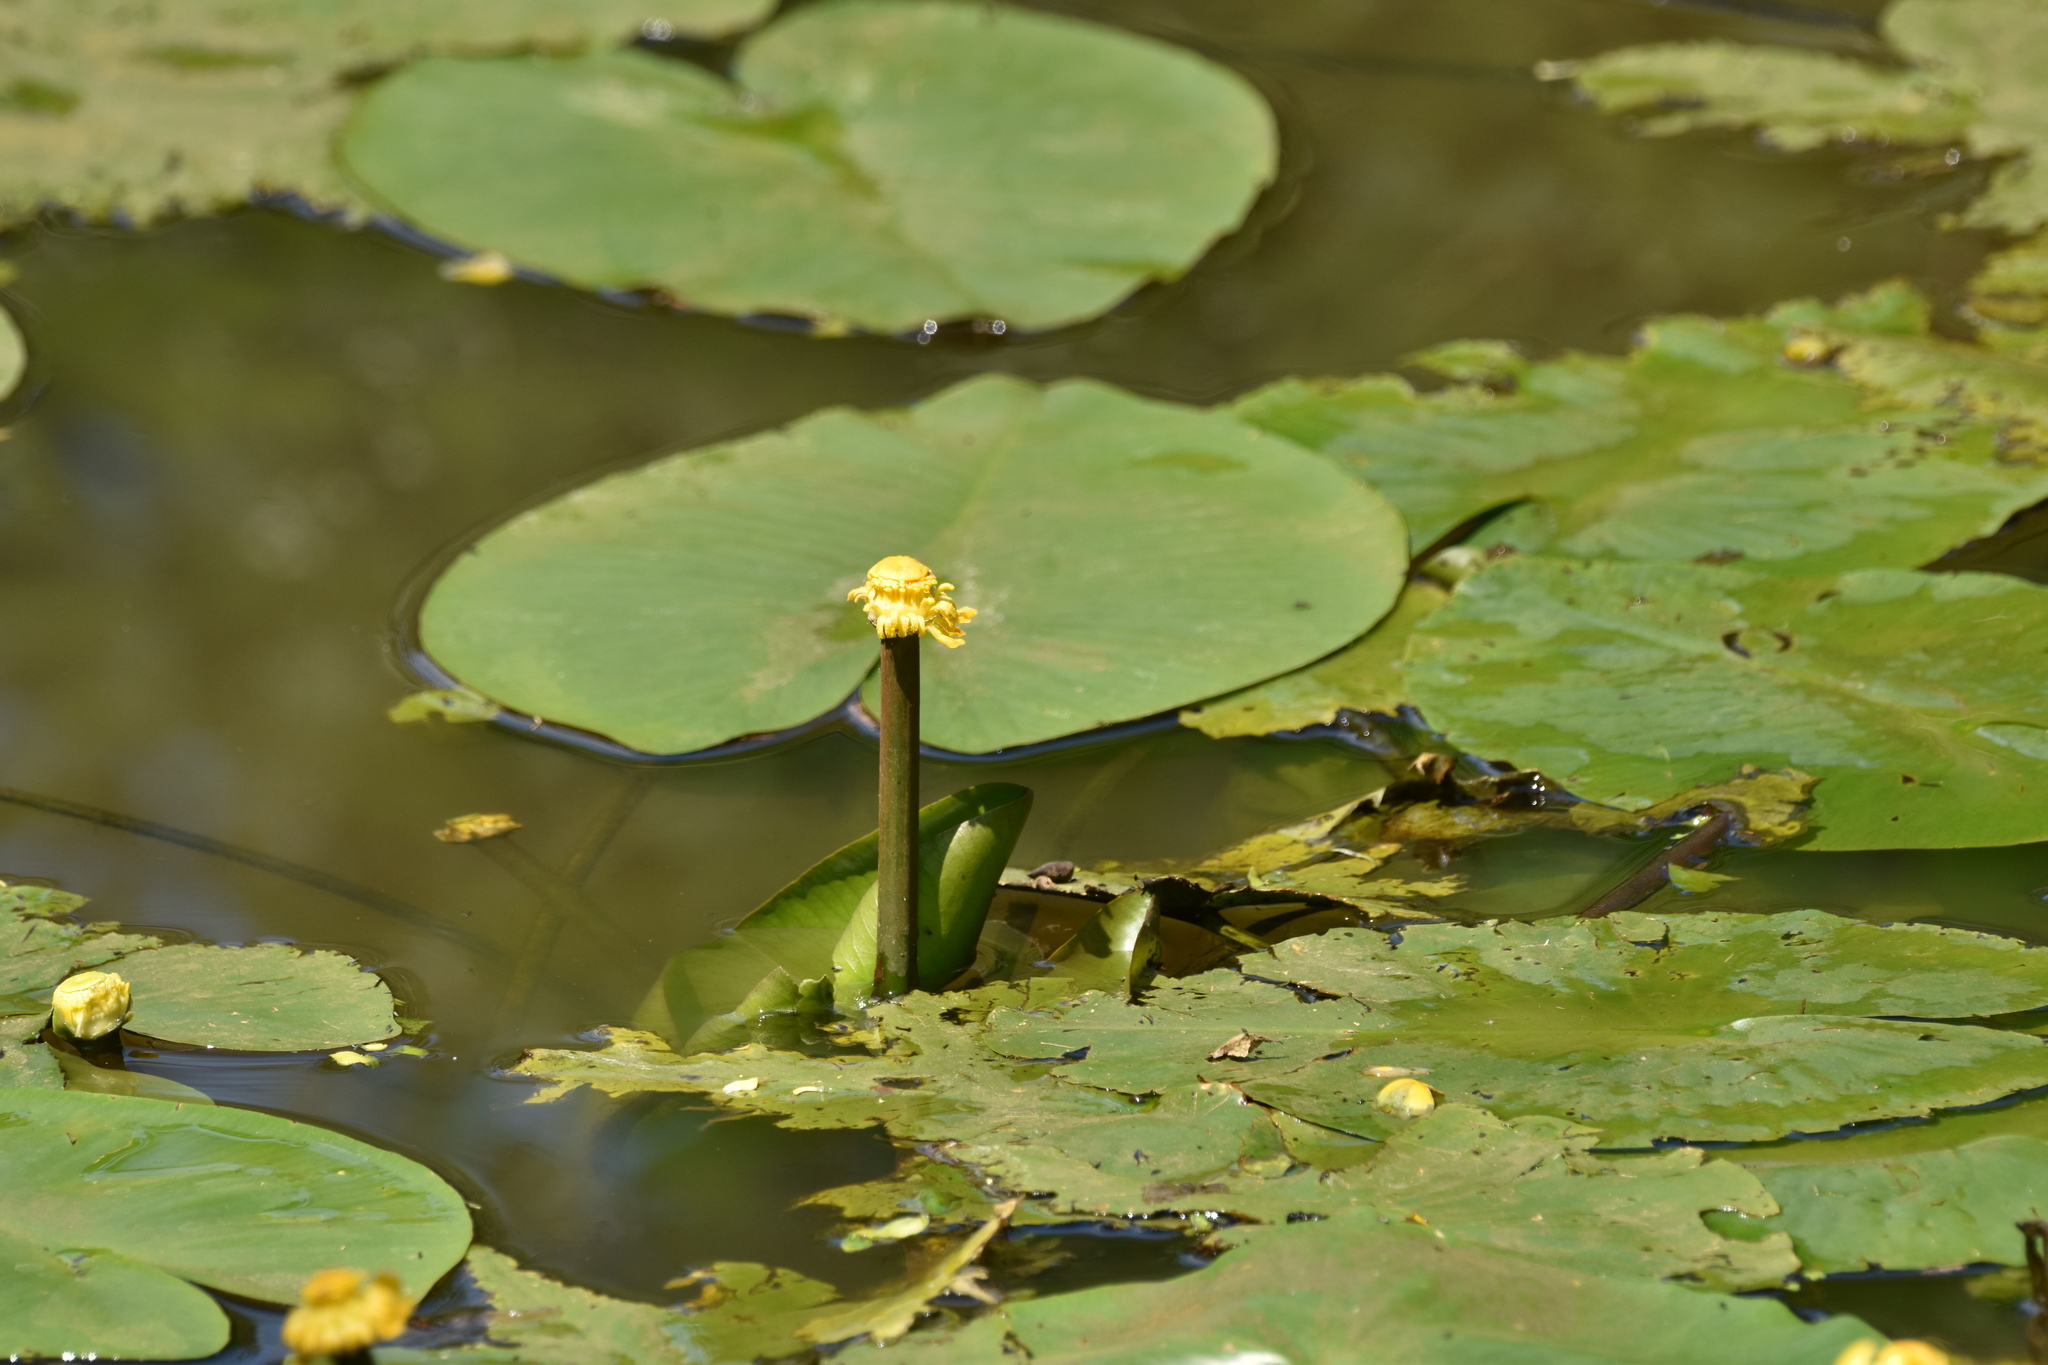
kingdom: Plantae
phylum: Tracheophyta
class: Magnoliopsida
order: Nymphaeales
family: Nymphaeaceae
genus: Nuphar
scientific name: Nuphar lutea
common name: Yellow water-lily
